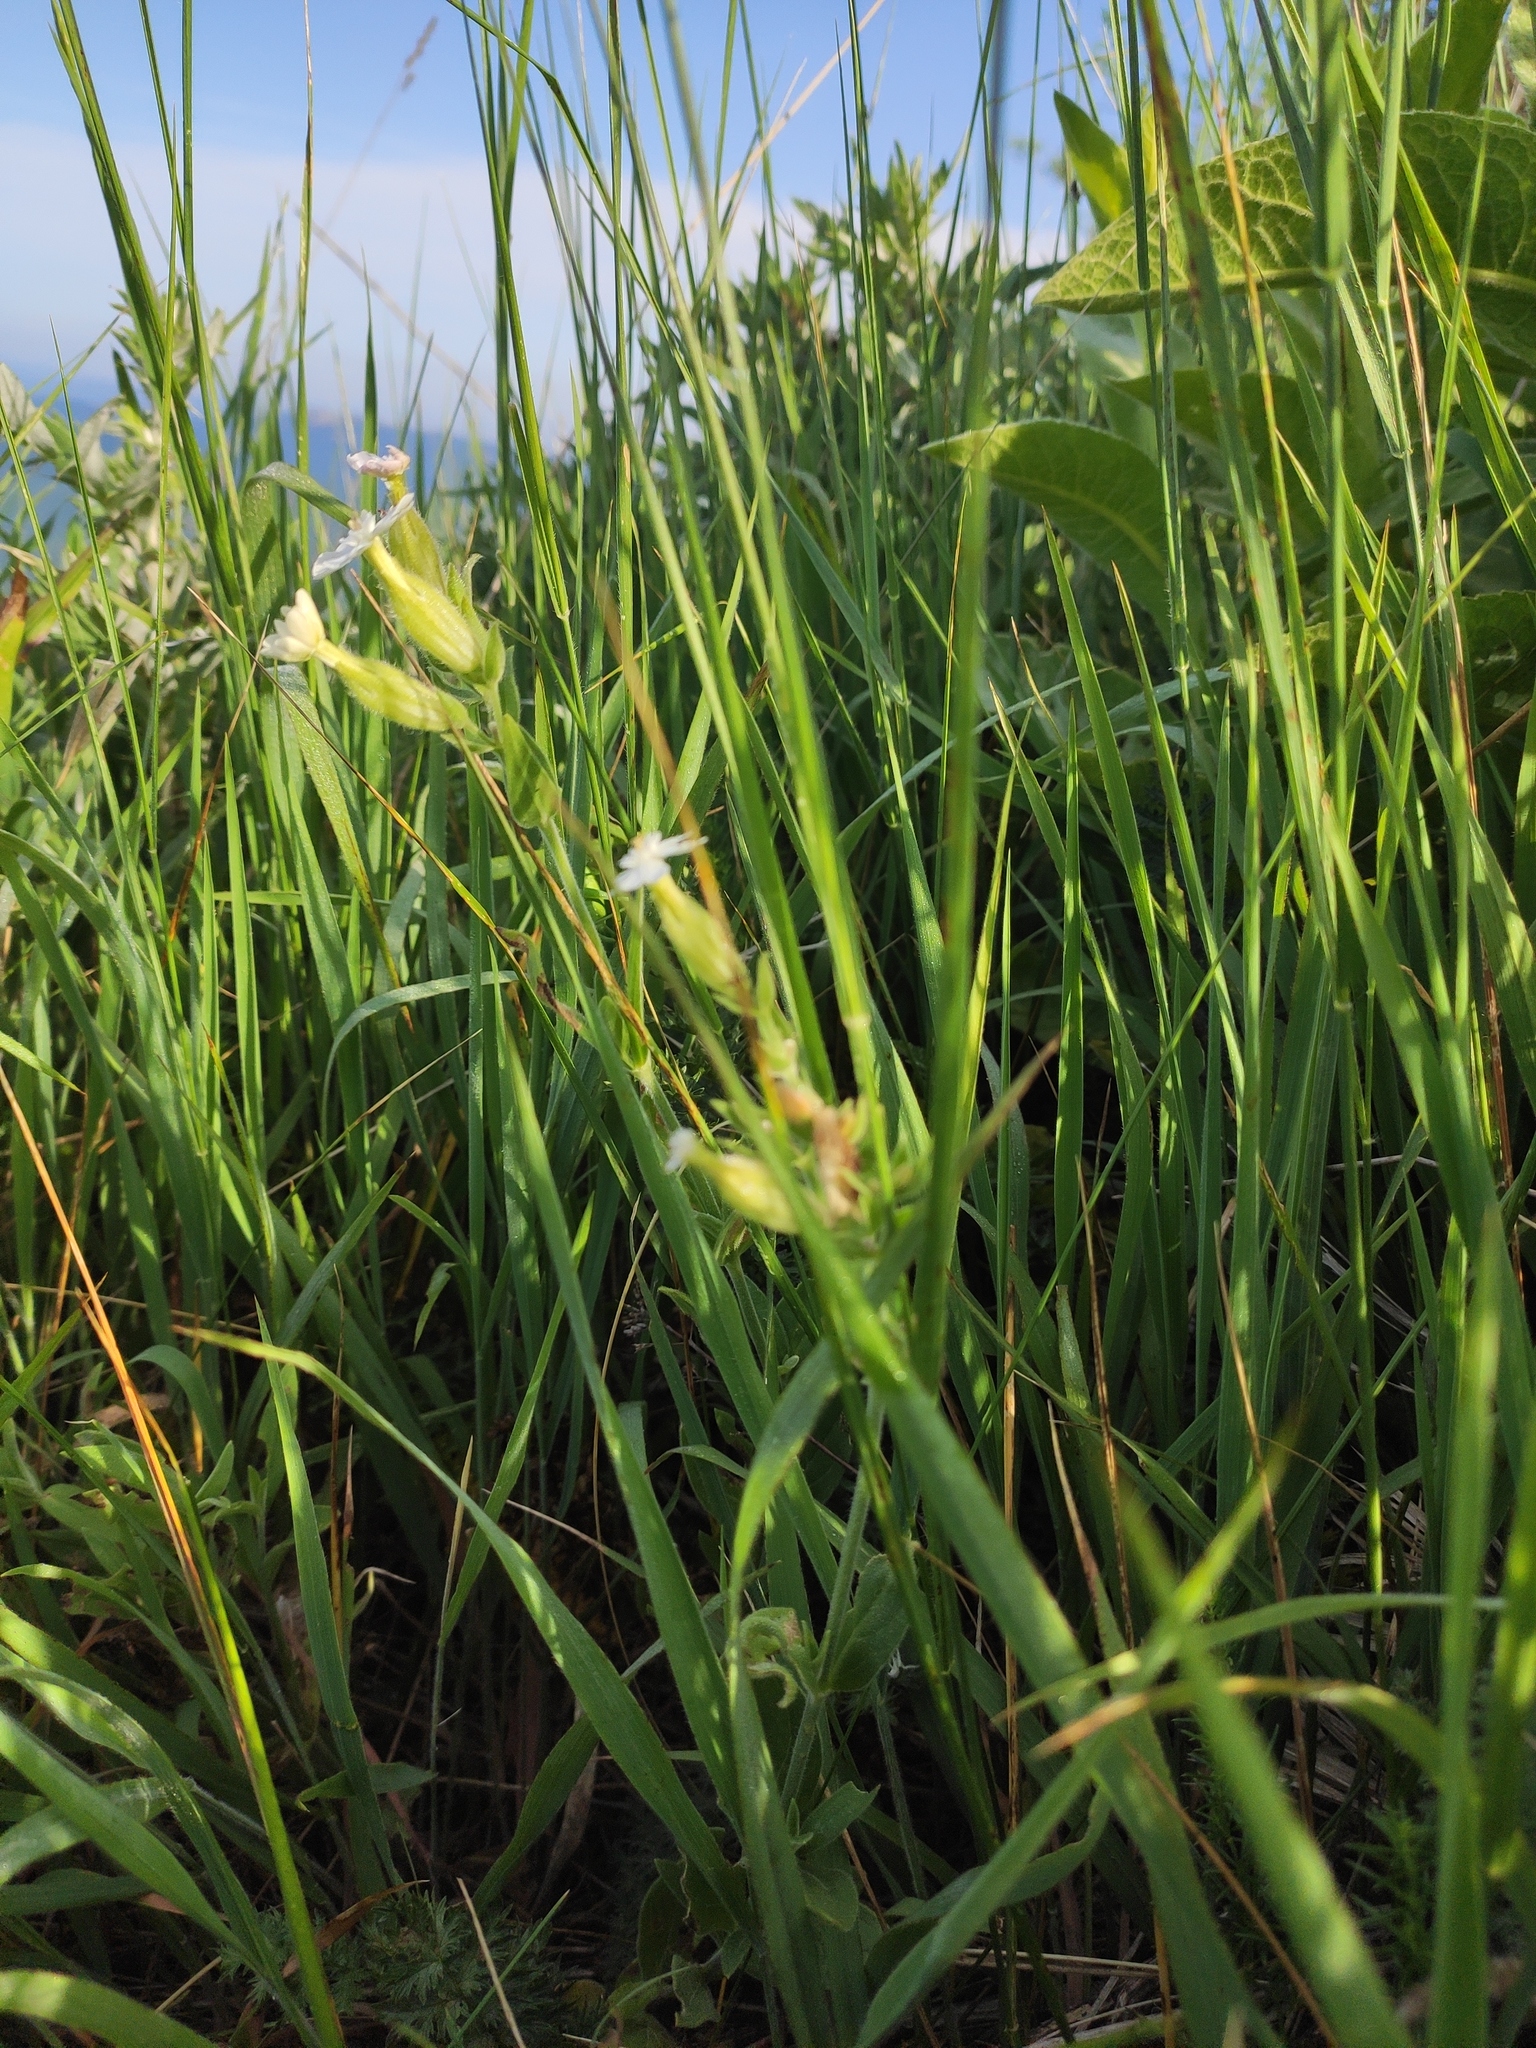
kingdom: Plantae
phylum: Tracheophyta
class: Magnoliopsida
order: Caryophyllales
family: Caryophyllaceae
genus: Silene
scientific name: Silene latifolia
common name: White campion
